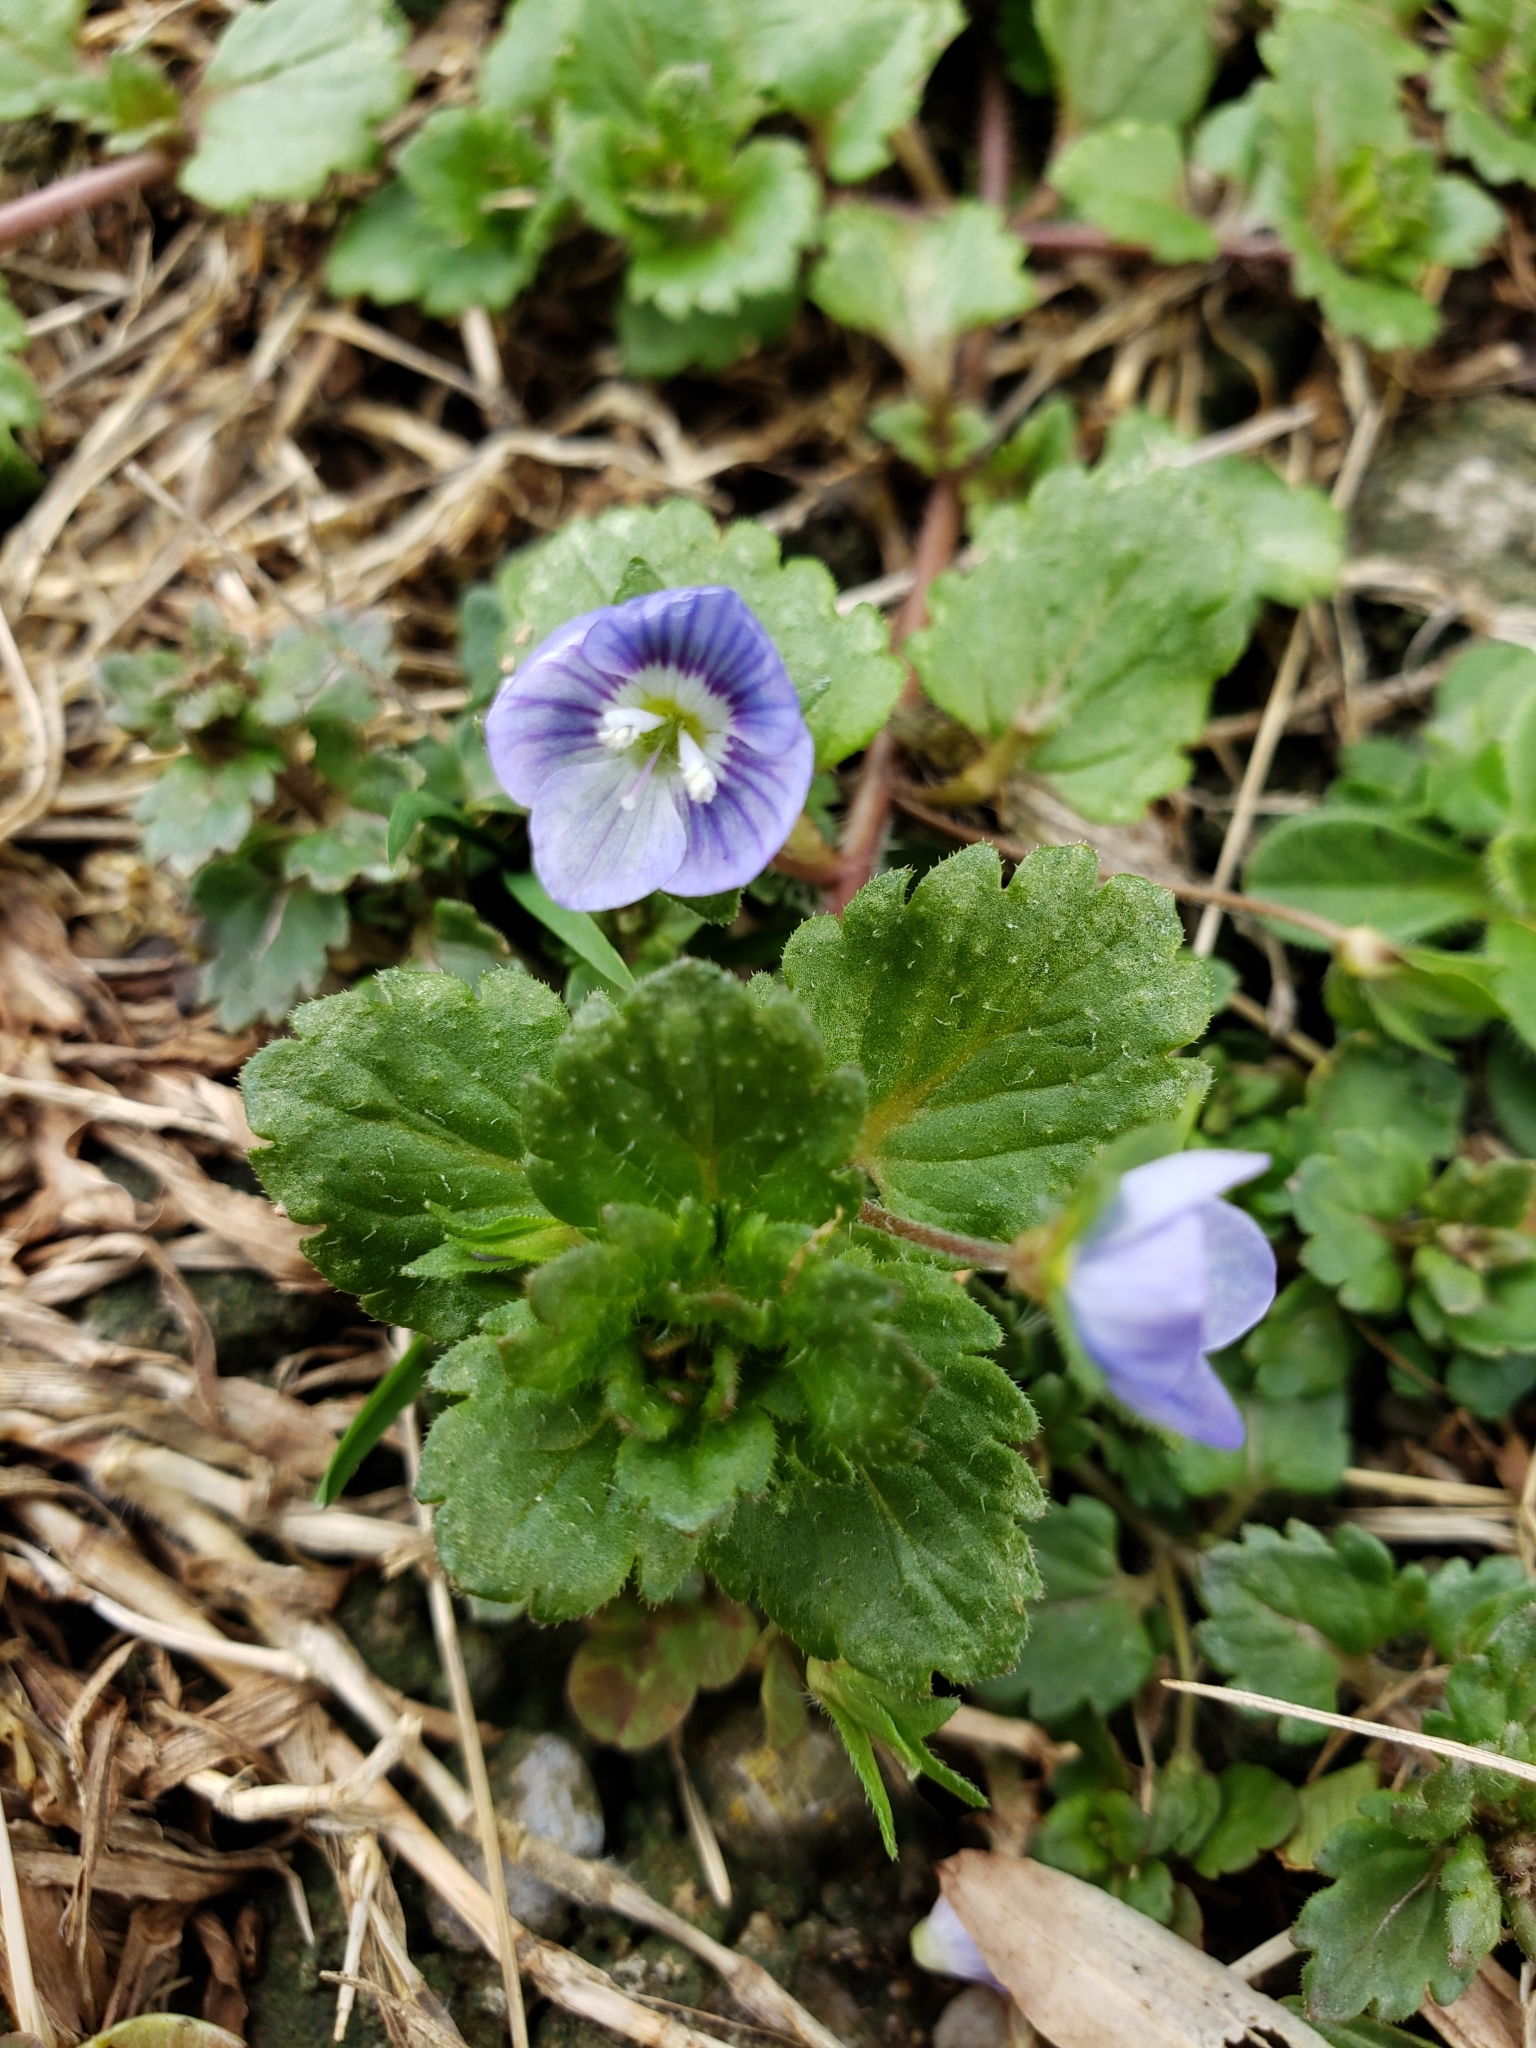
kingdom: Plantae
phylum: Tracheophyta
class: Magnoliopsida
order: Lamiales
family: Plantaginaceae
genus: Veronica
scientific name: Veronica persica
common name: Common field-speedwell
